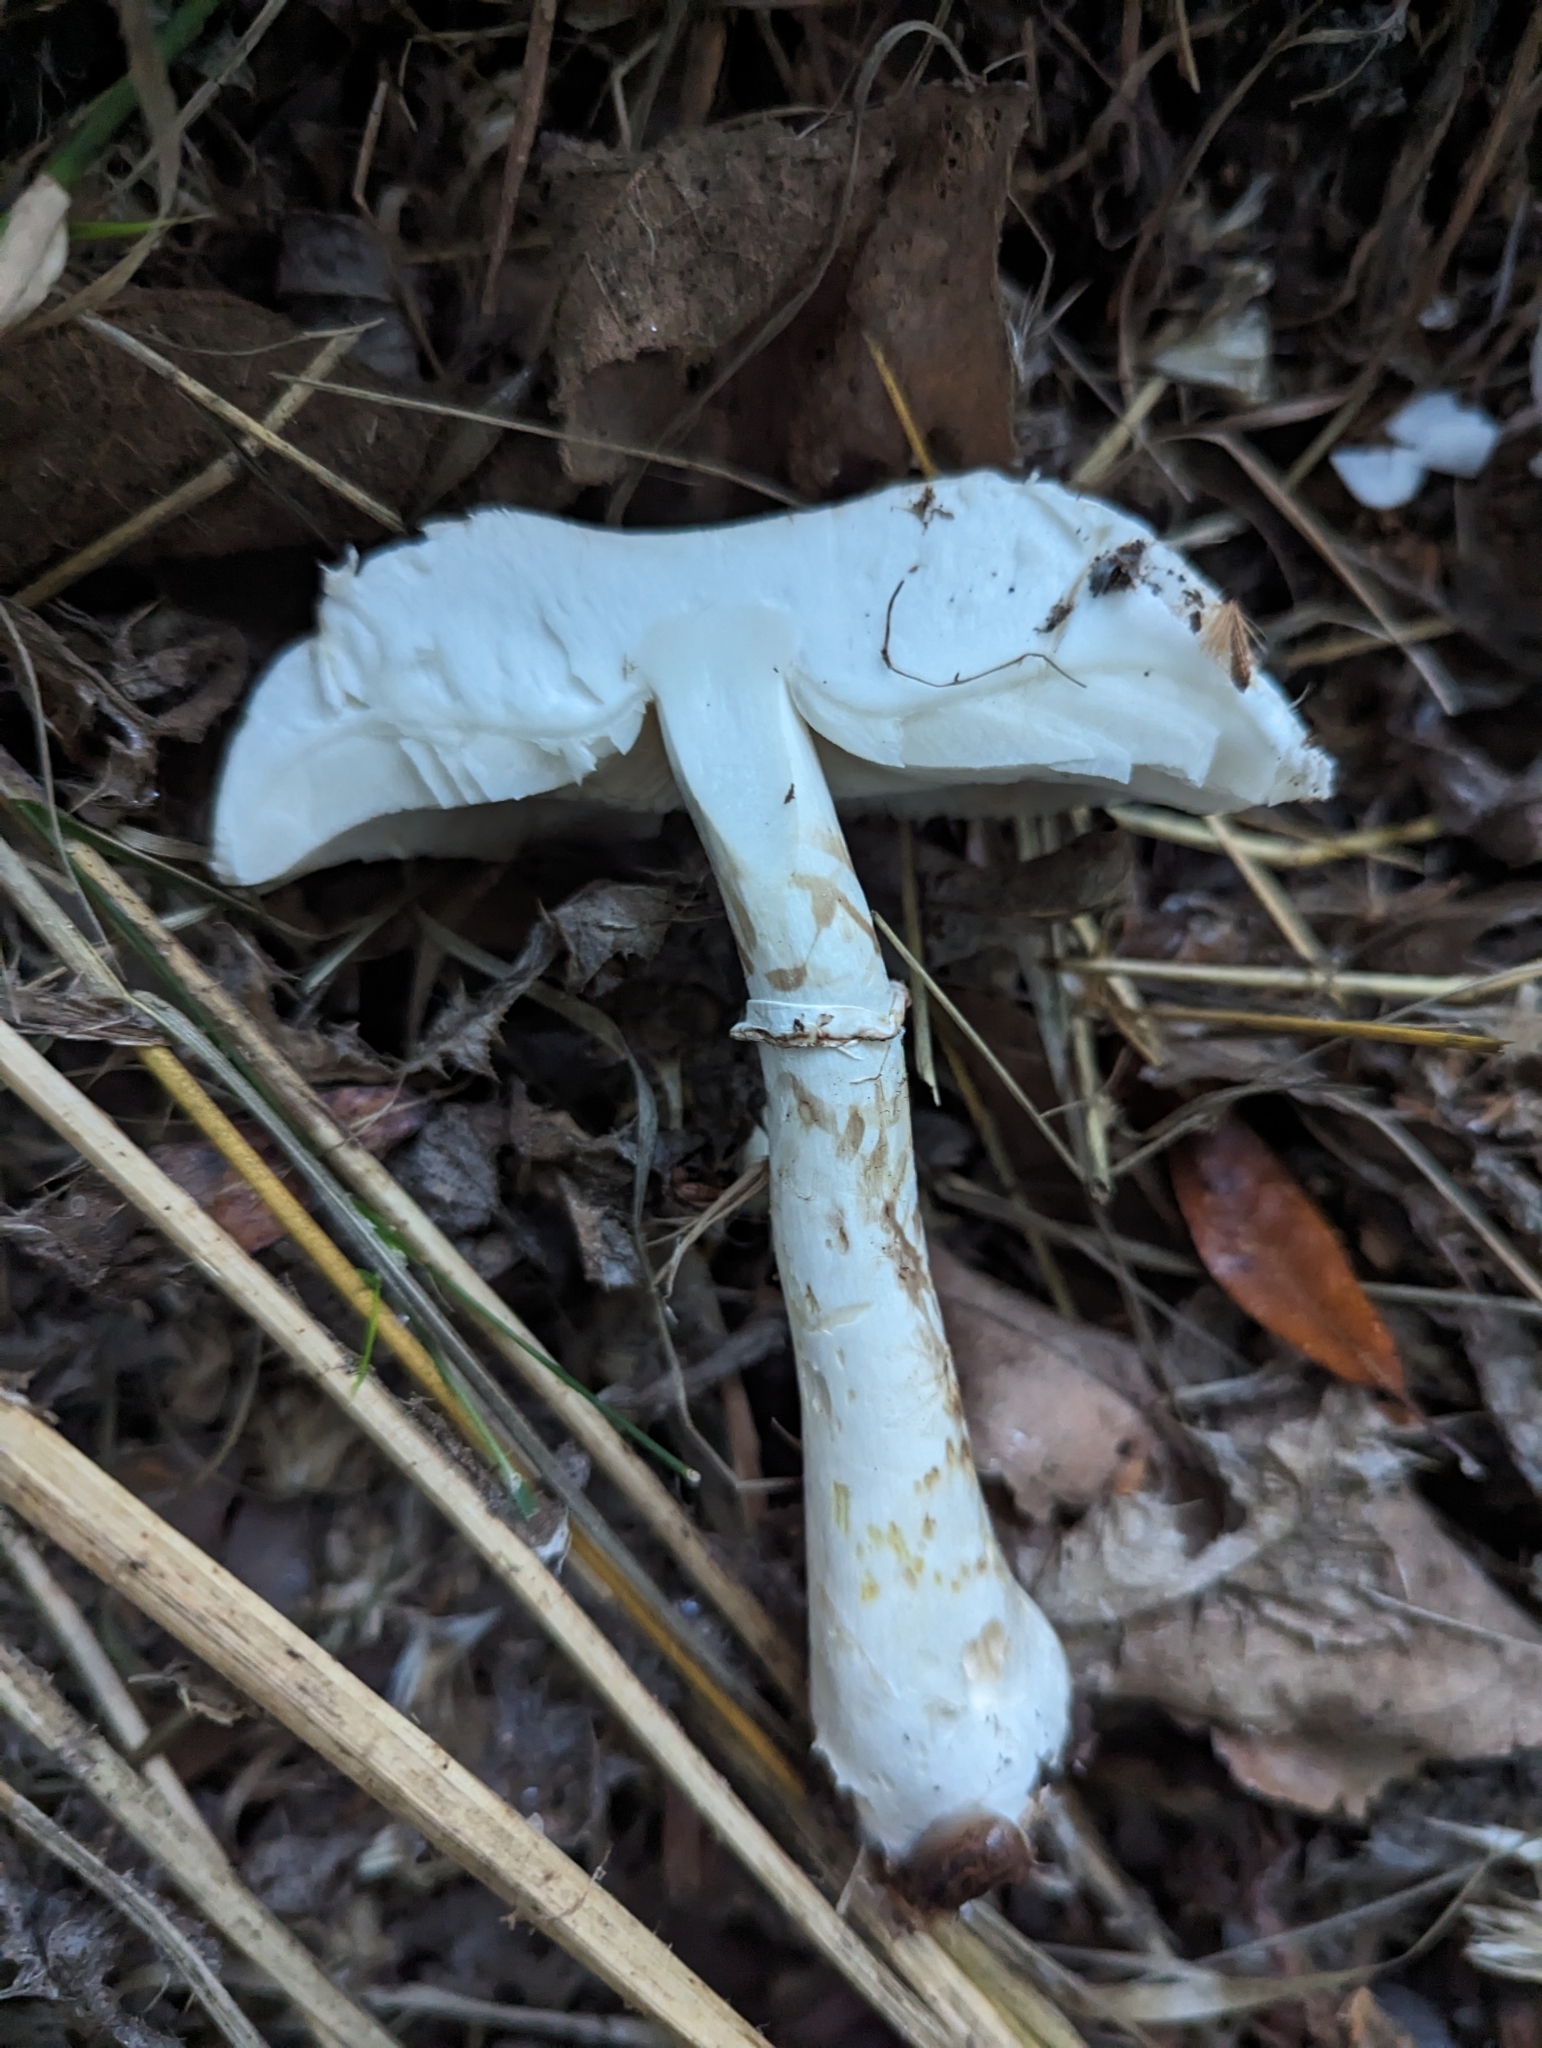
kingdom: Fungi
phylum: Basidiomycota
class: Agaricomycetes
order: Agaricales
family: Agaricaceae
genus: Leucoagaricus
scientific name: Leucoagaricus leucothites
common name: White dapperling
